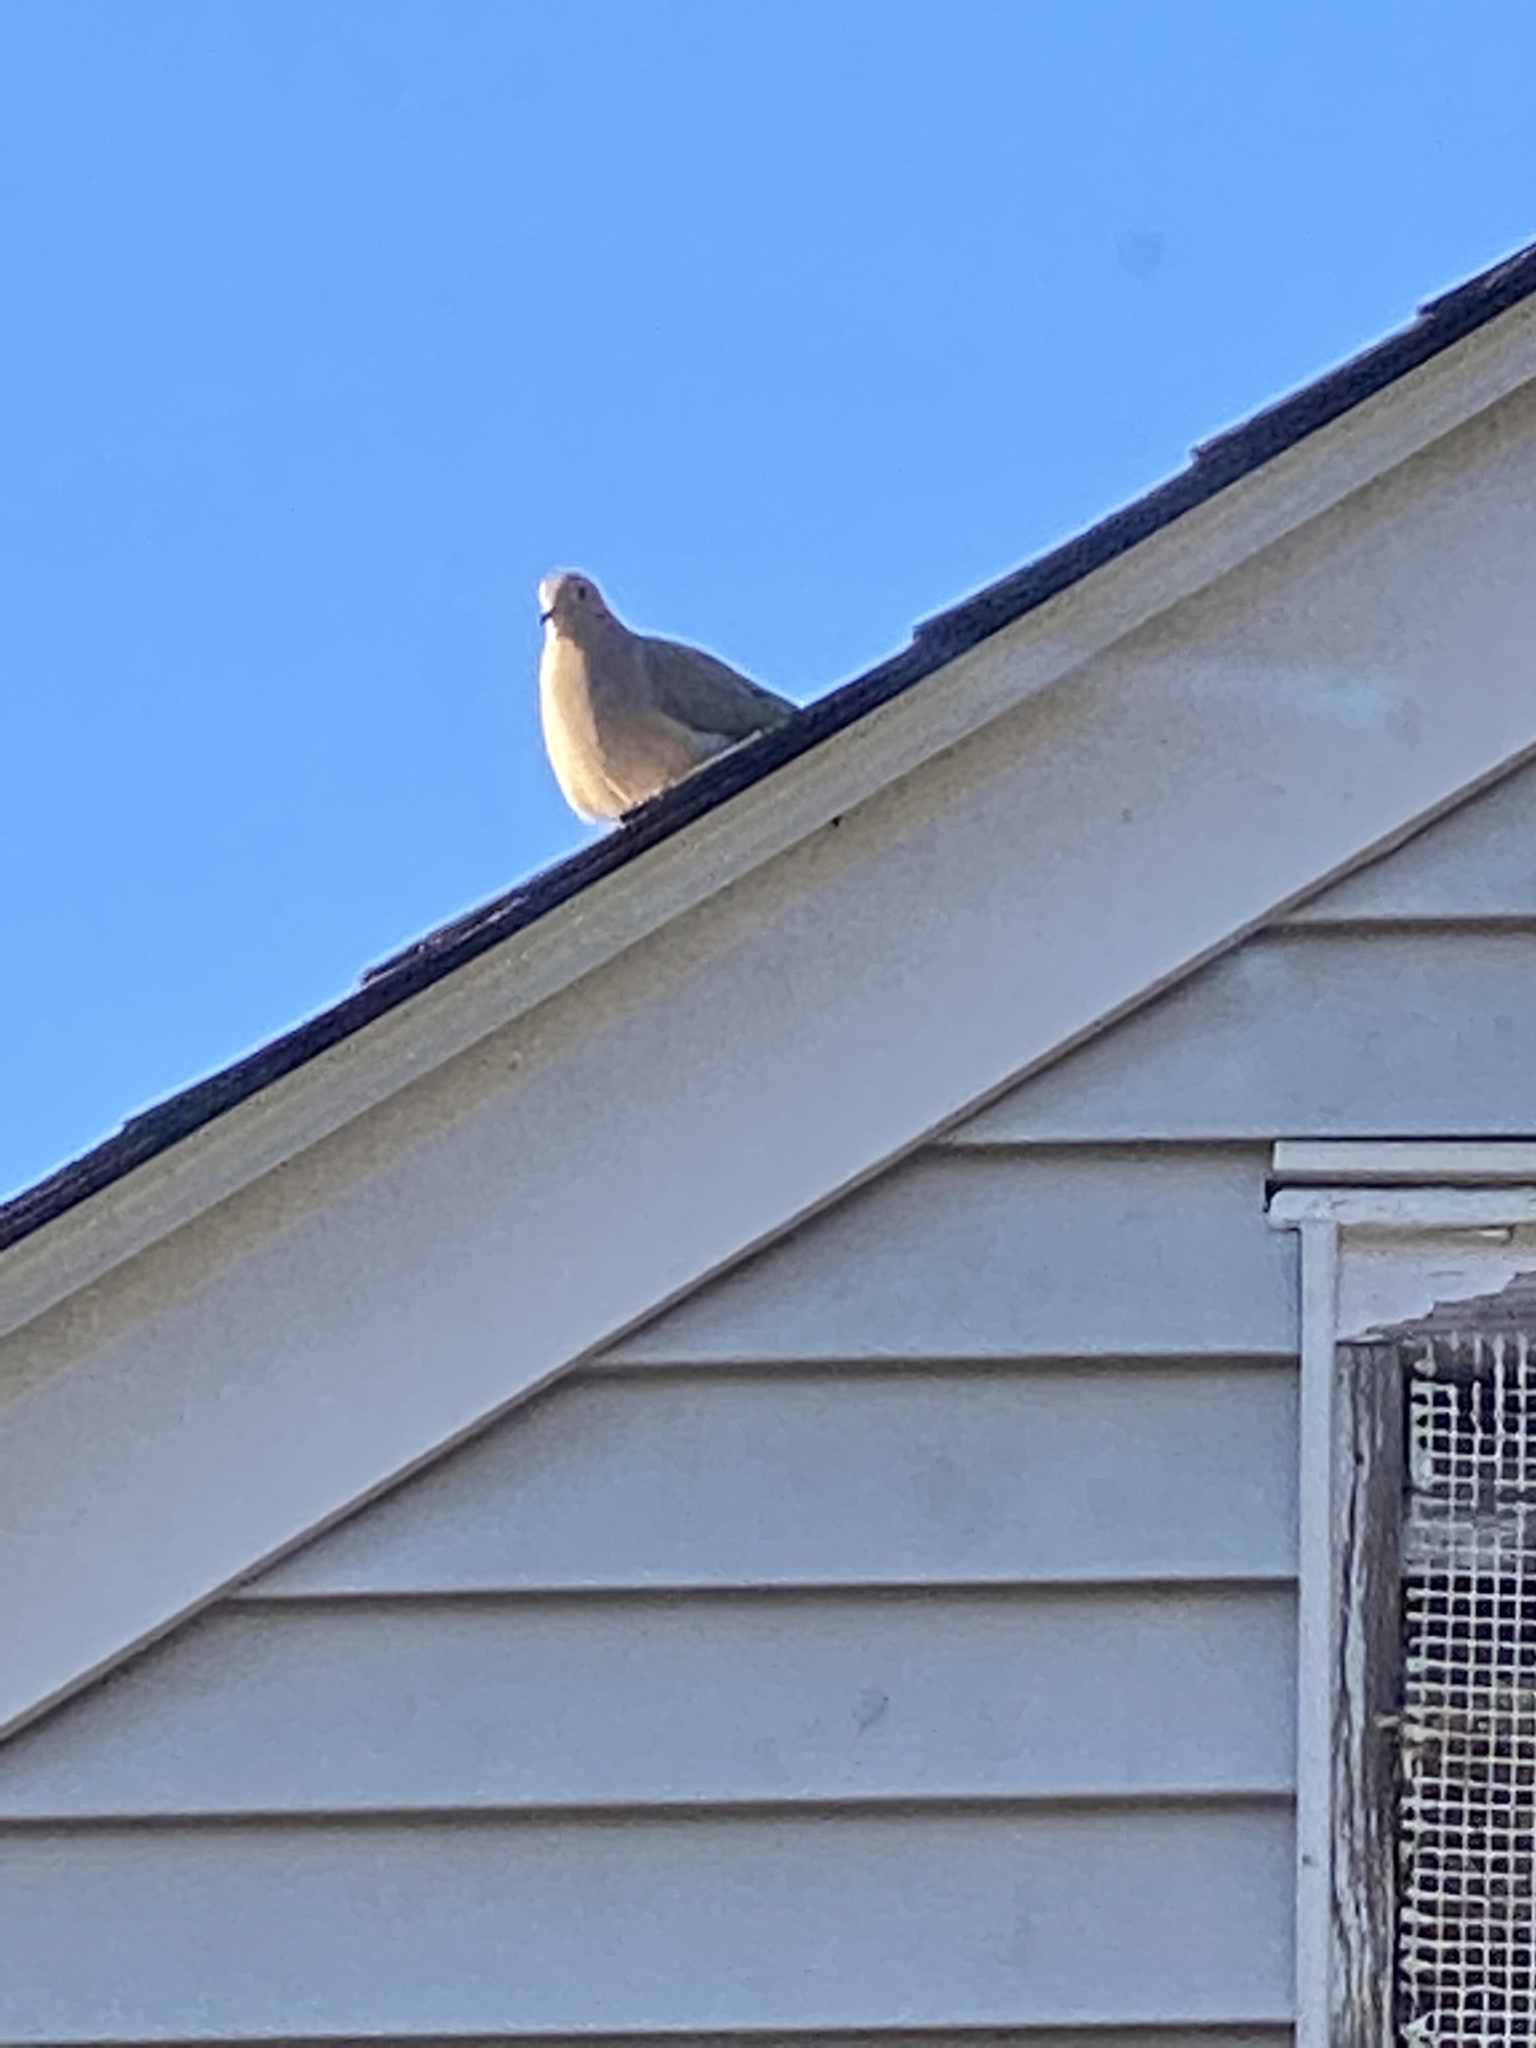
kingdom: Animalia
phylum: Chordata
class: Aves
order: Columbiformes
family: Columbidae
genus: Zenaida
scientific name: Zenaida macroura
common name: Mourning dove
